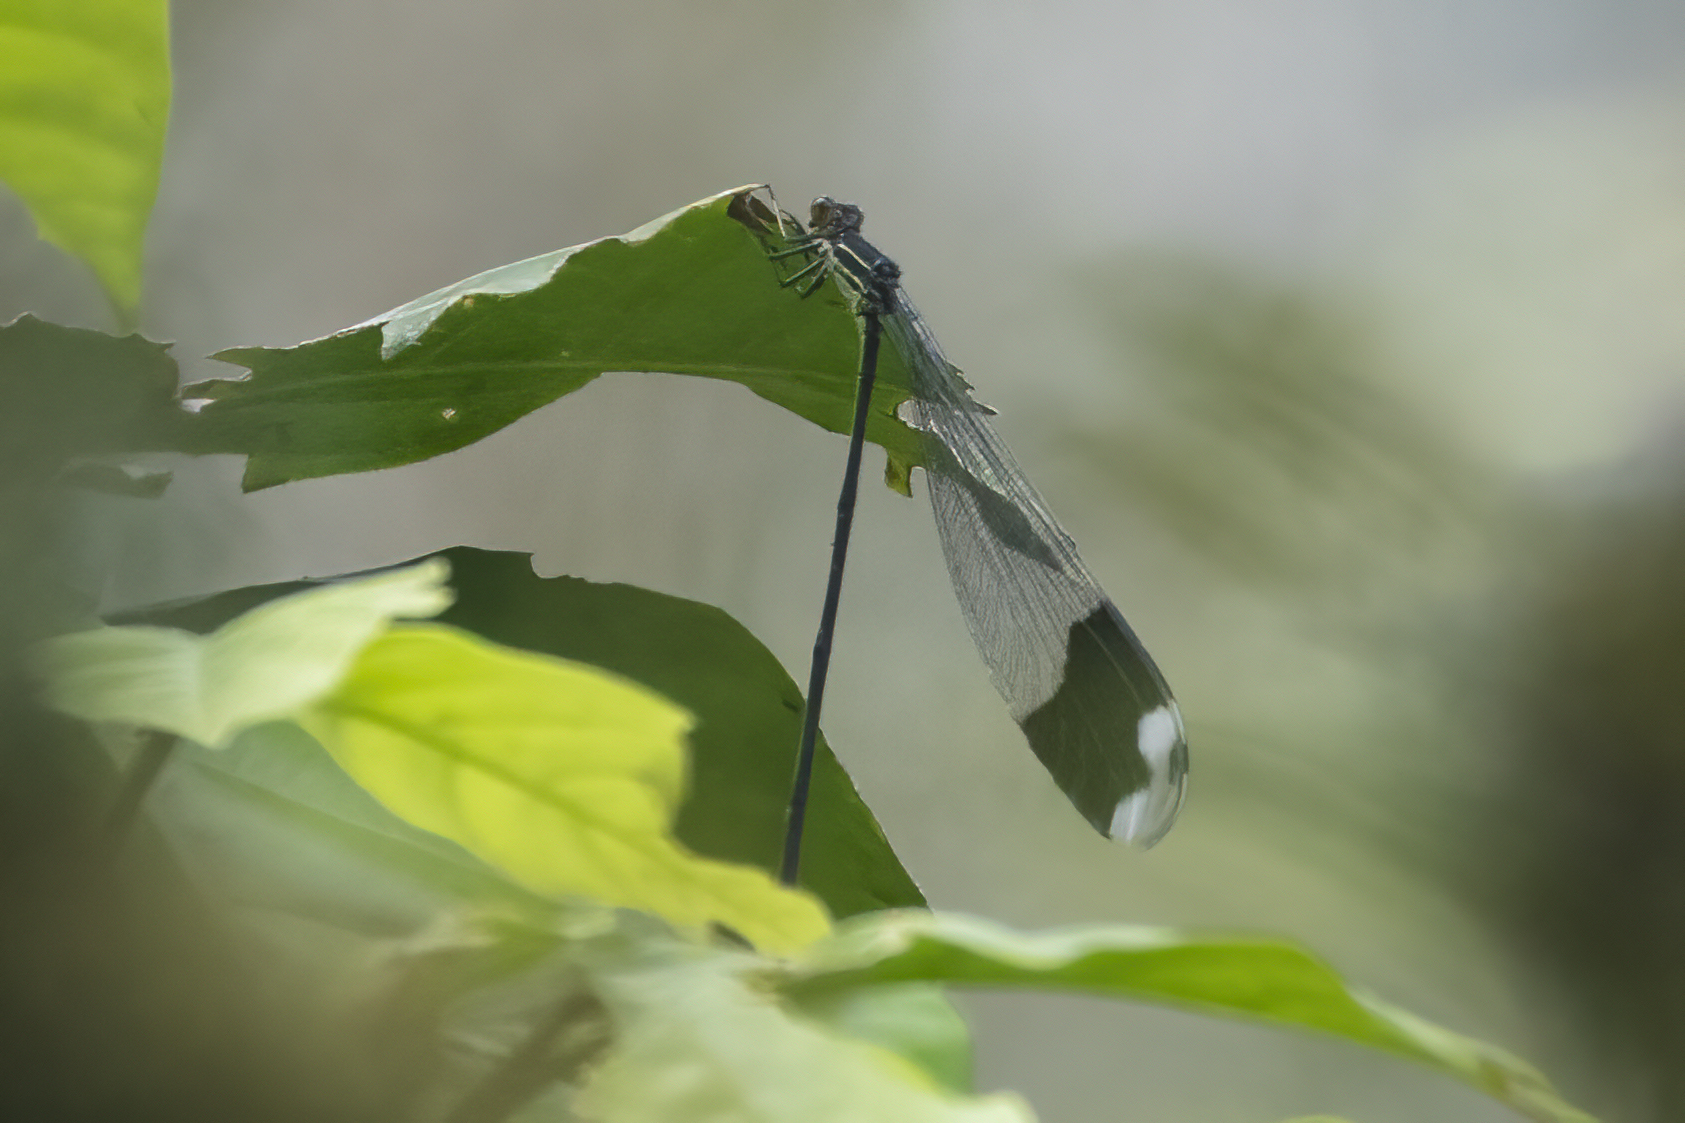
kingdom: Animalia
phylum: Arthropoda
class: Insecta
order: Odonata
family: Coenagrionidae
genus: Megaloprepus
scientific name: Megaloprepus caerulatus
